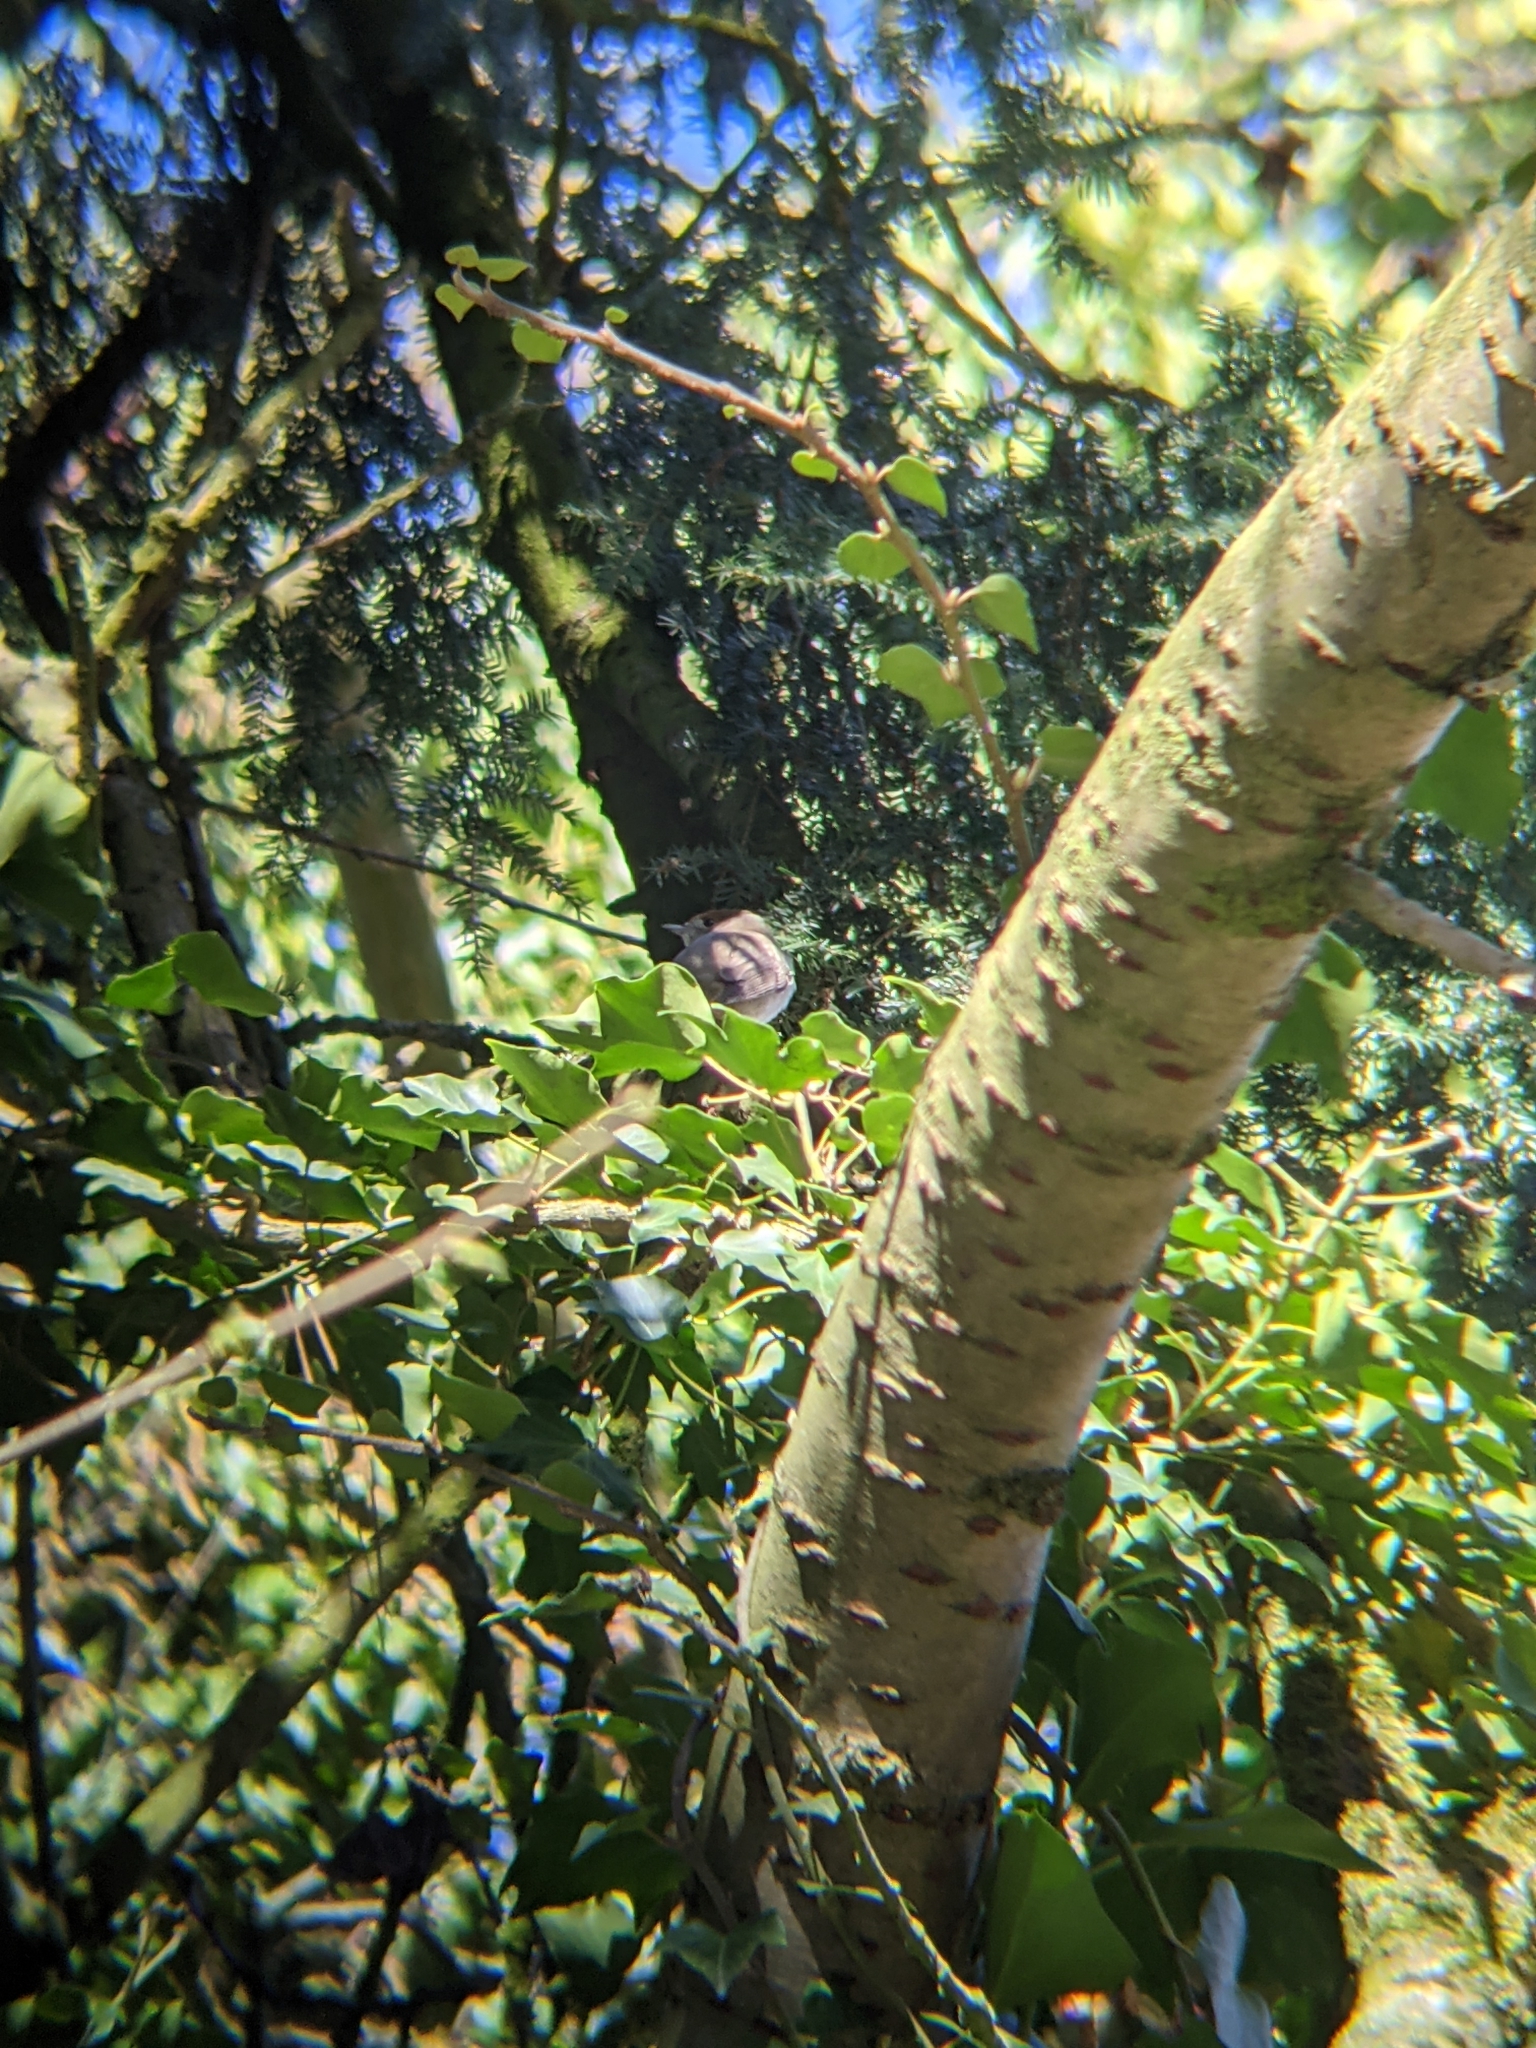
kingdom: Animalia
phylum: Chordata
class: Aves
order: Passeriformes
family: Sylviidae
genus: Sylvia
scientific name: Sylvia atricapilla
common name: Eurasian blackcap
